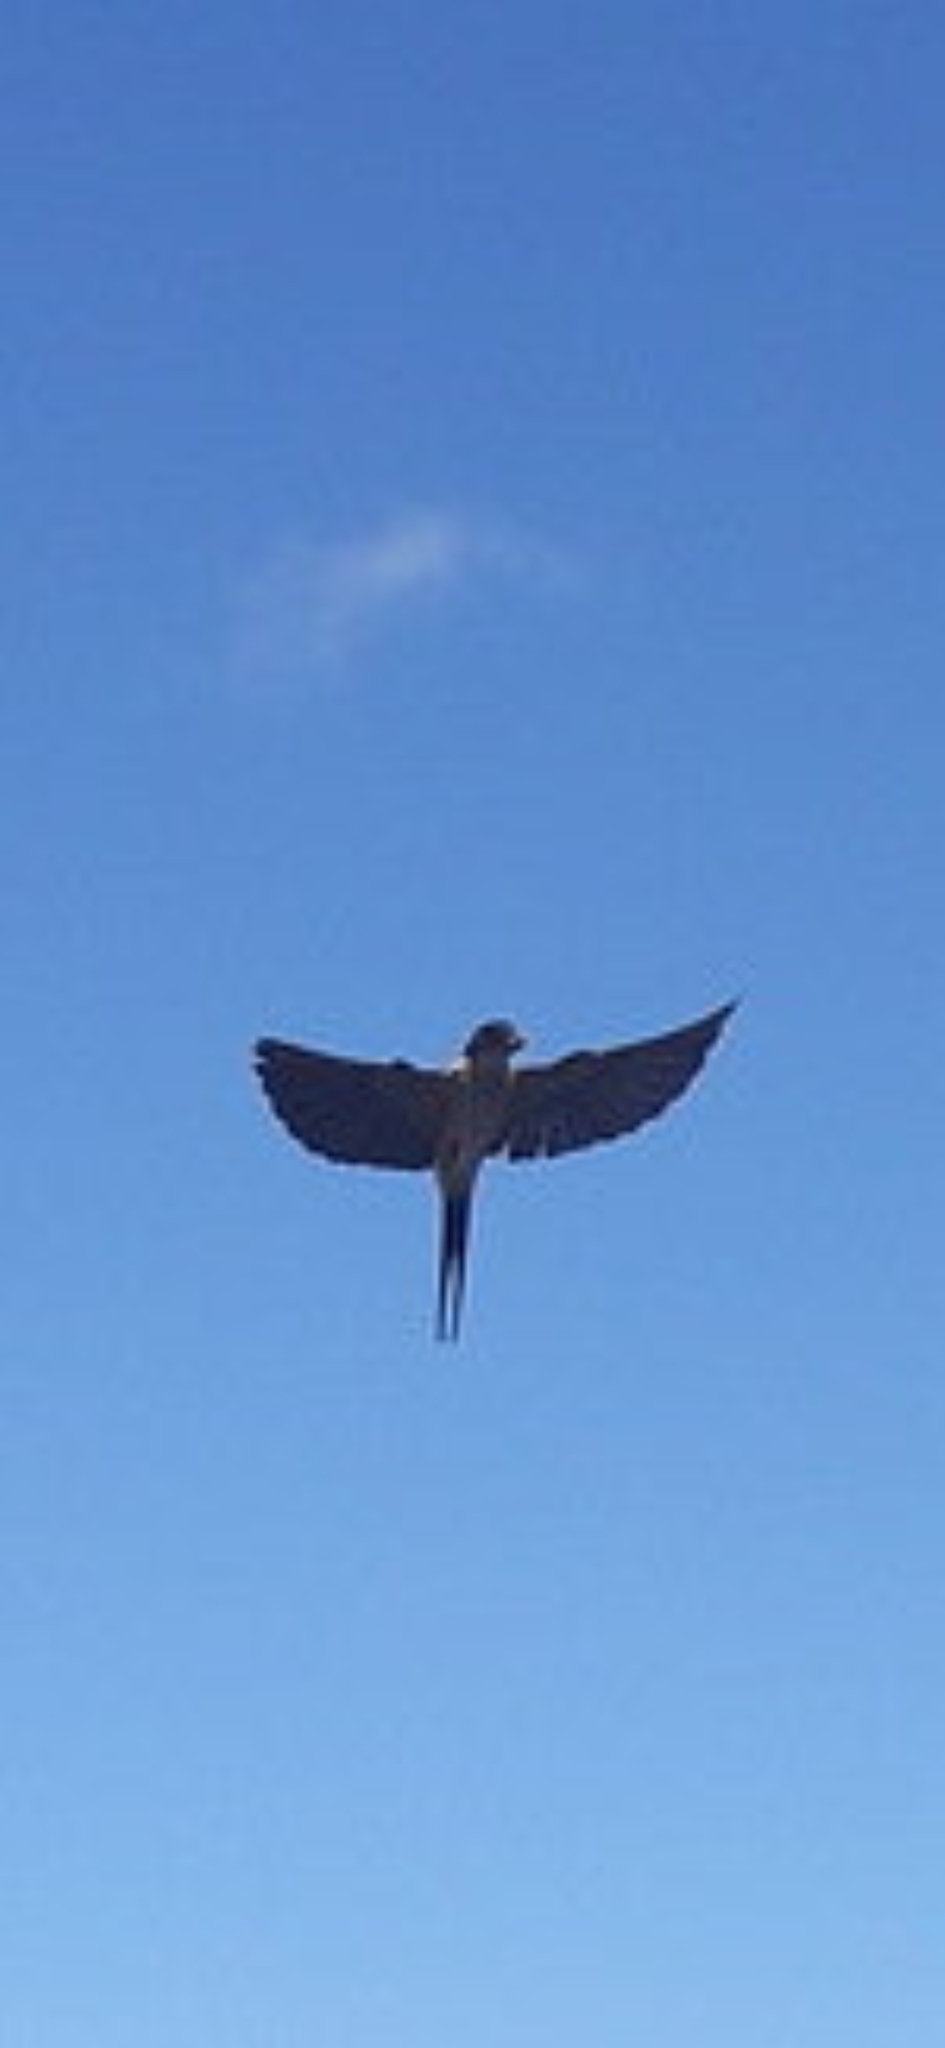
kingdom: Animalia
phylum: Chordata
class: Aves
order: Passeriformes
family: Hirundinidae
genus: Cecropis
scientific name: Cecropis daurica
